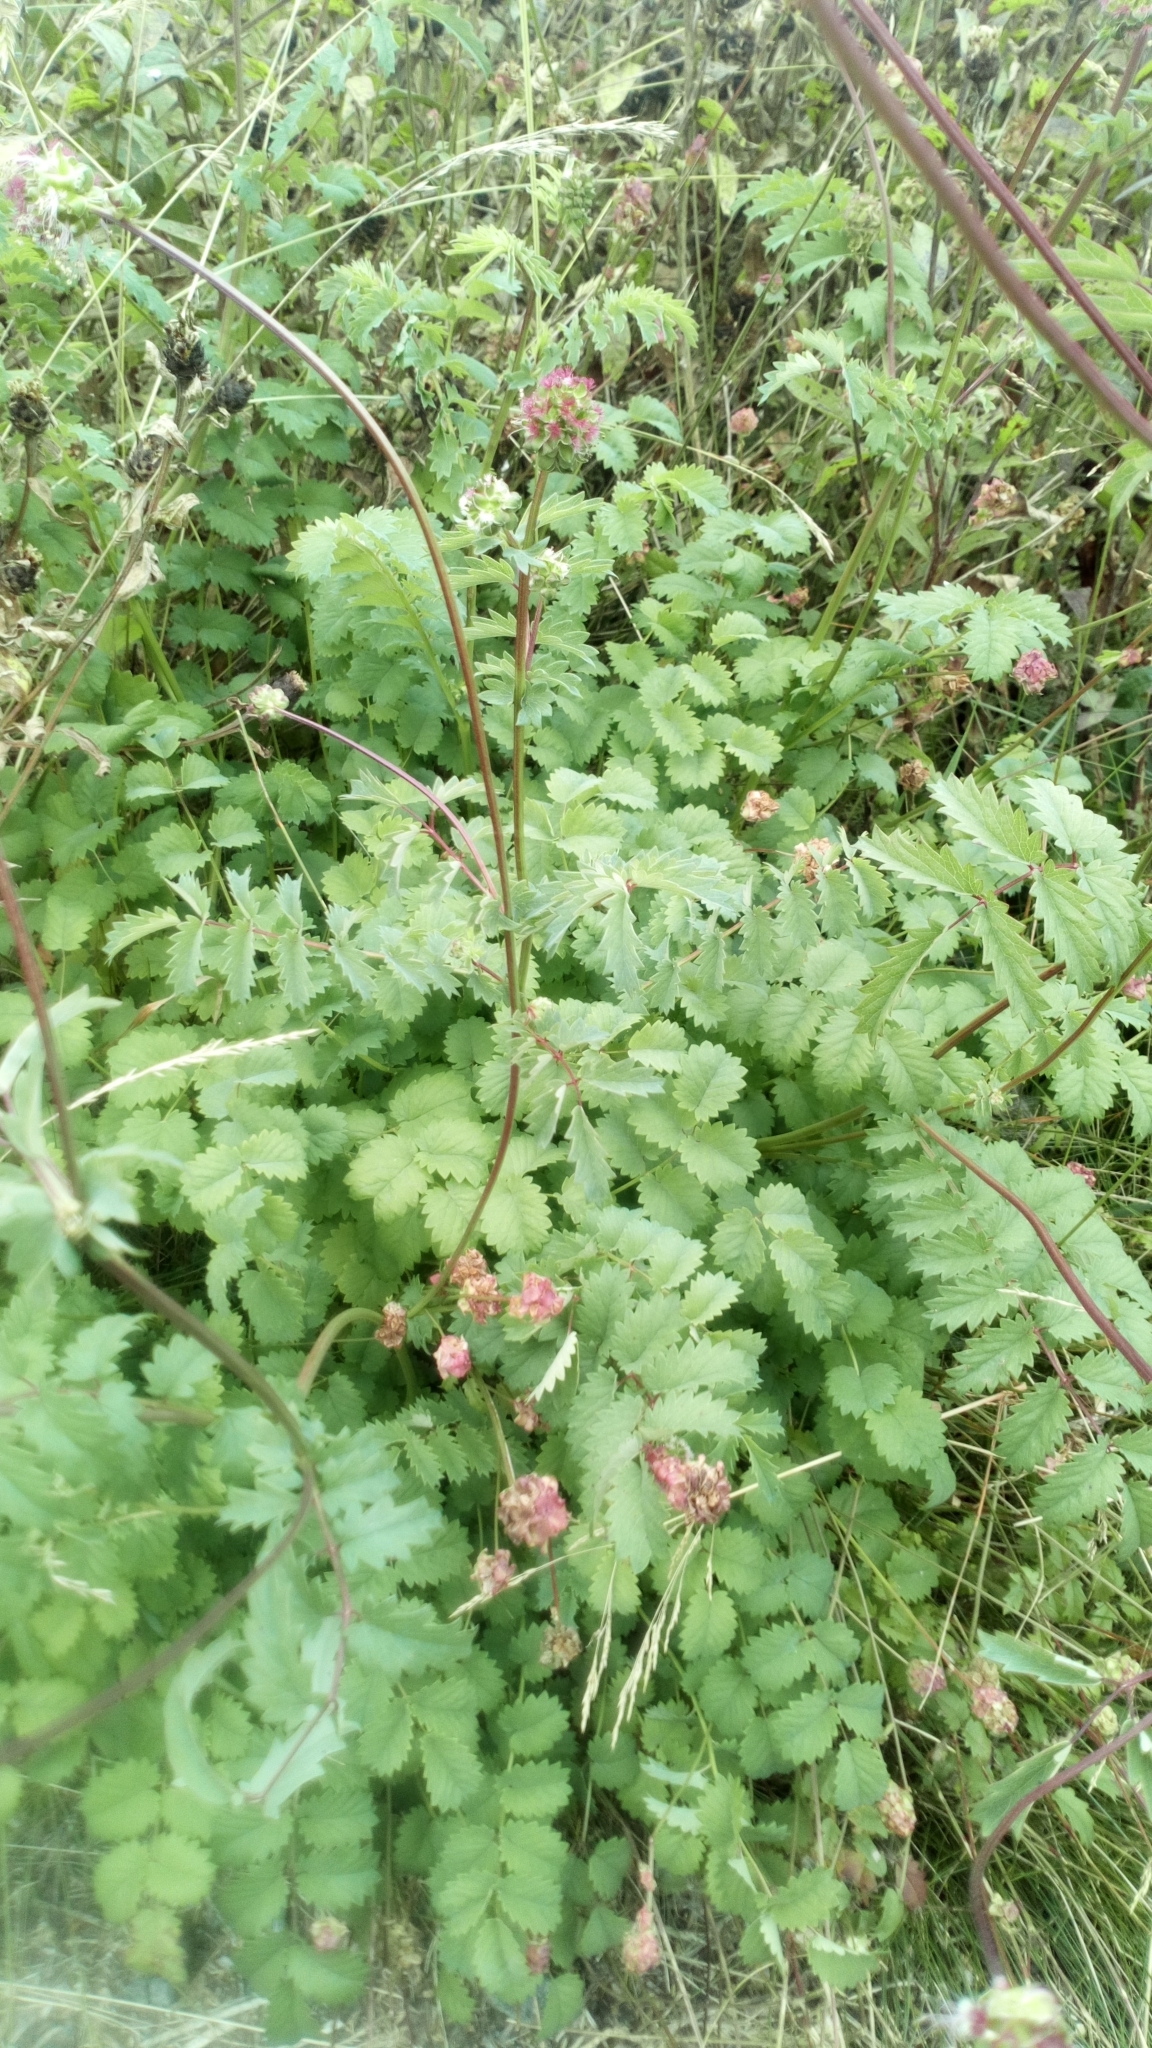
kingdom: Plantae
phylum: Tracheophyta
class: Magnoliopsida
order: Rosales
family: Rosaceae
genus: Poterium
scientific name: Poterium sanguisorba
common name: Salad burnet
